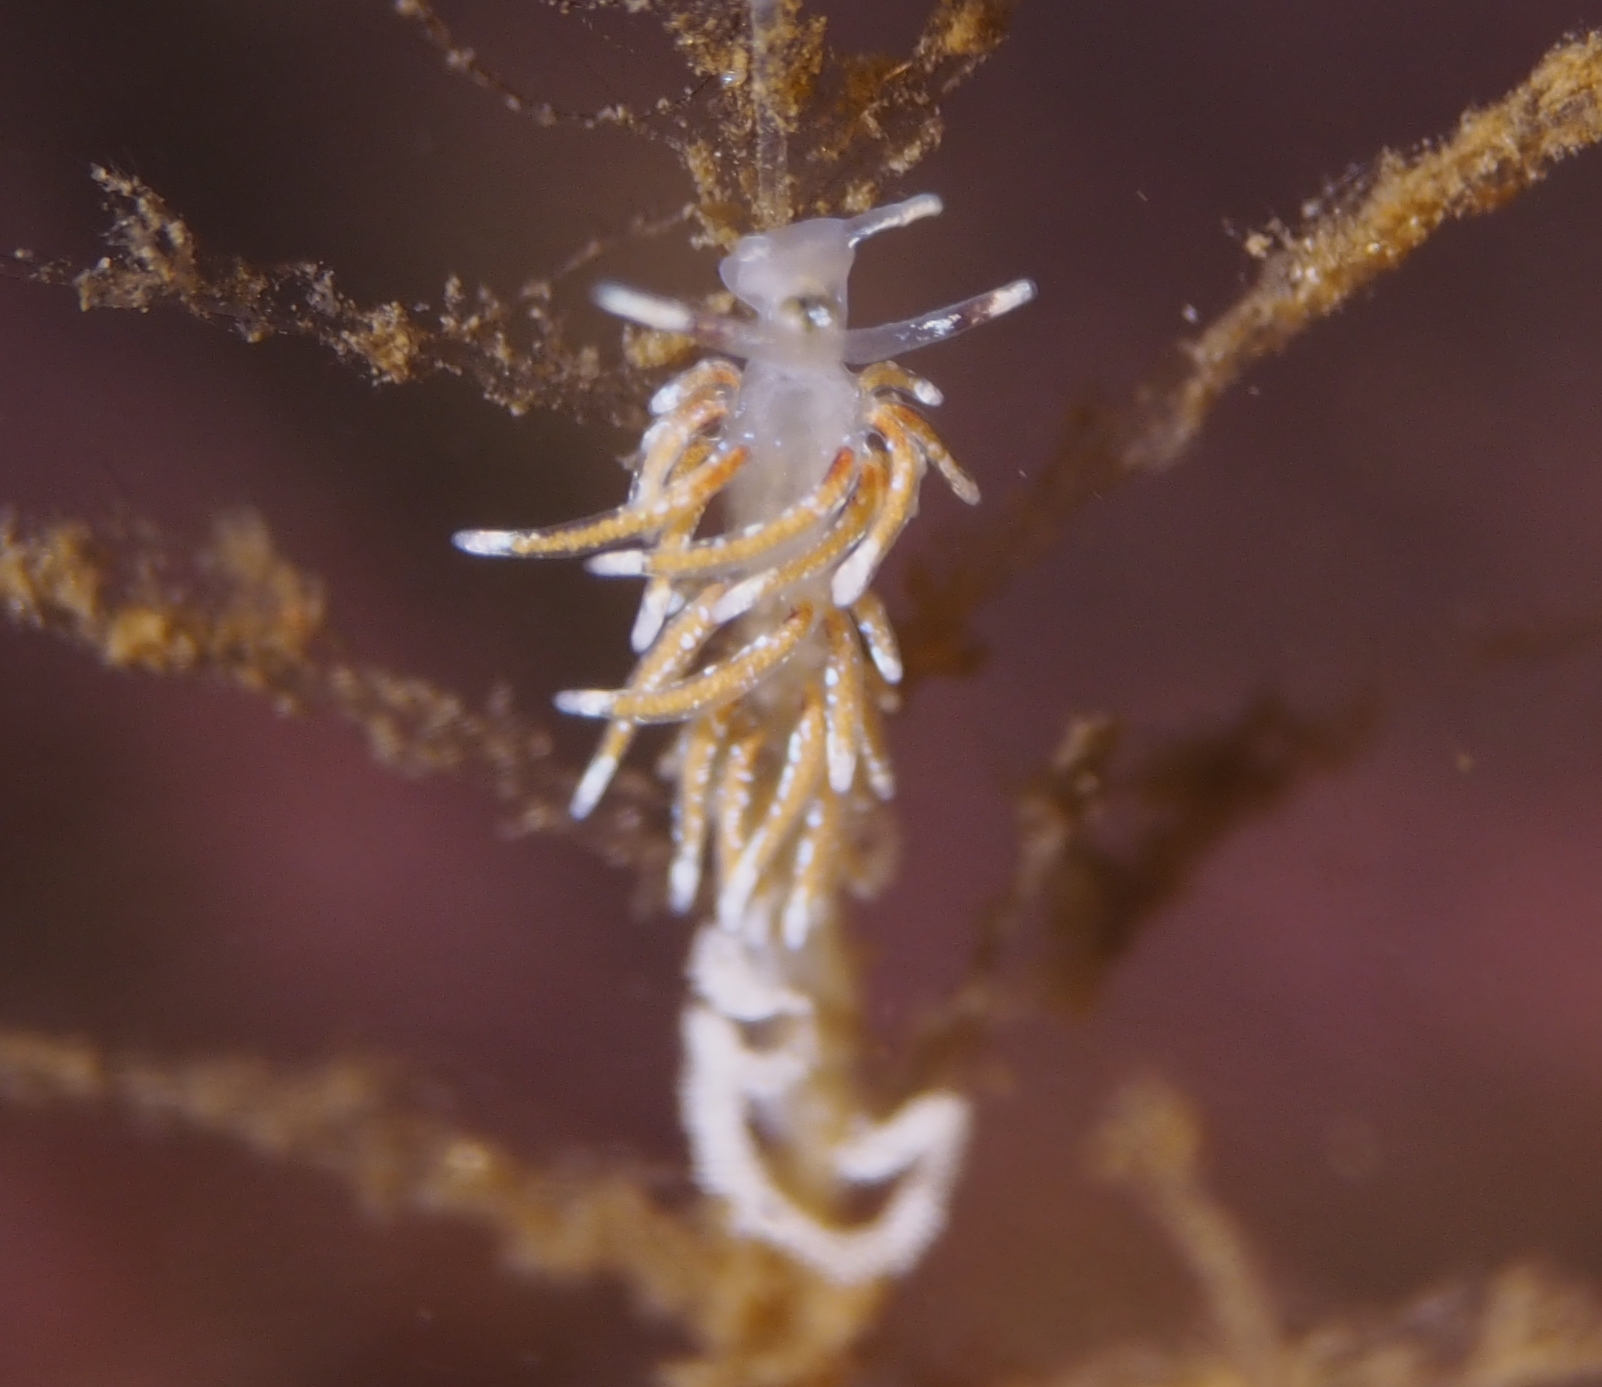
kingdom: Animalia
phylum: Mollusca
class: Gastropoda
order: Nudibranchia
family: Trinchesiidae
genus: Rubramoena
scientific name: Rubramoena rubescens
